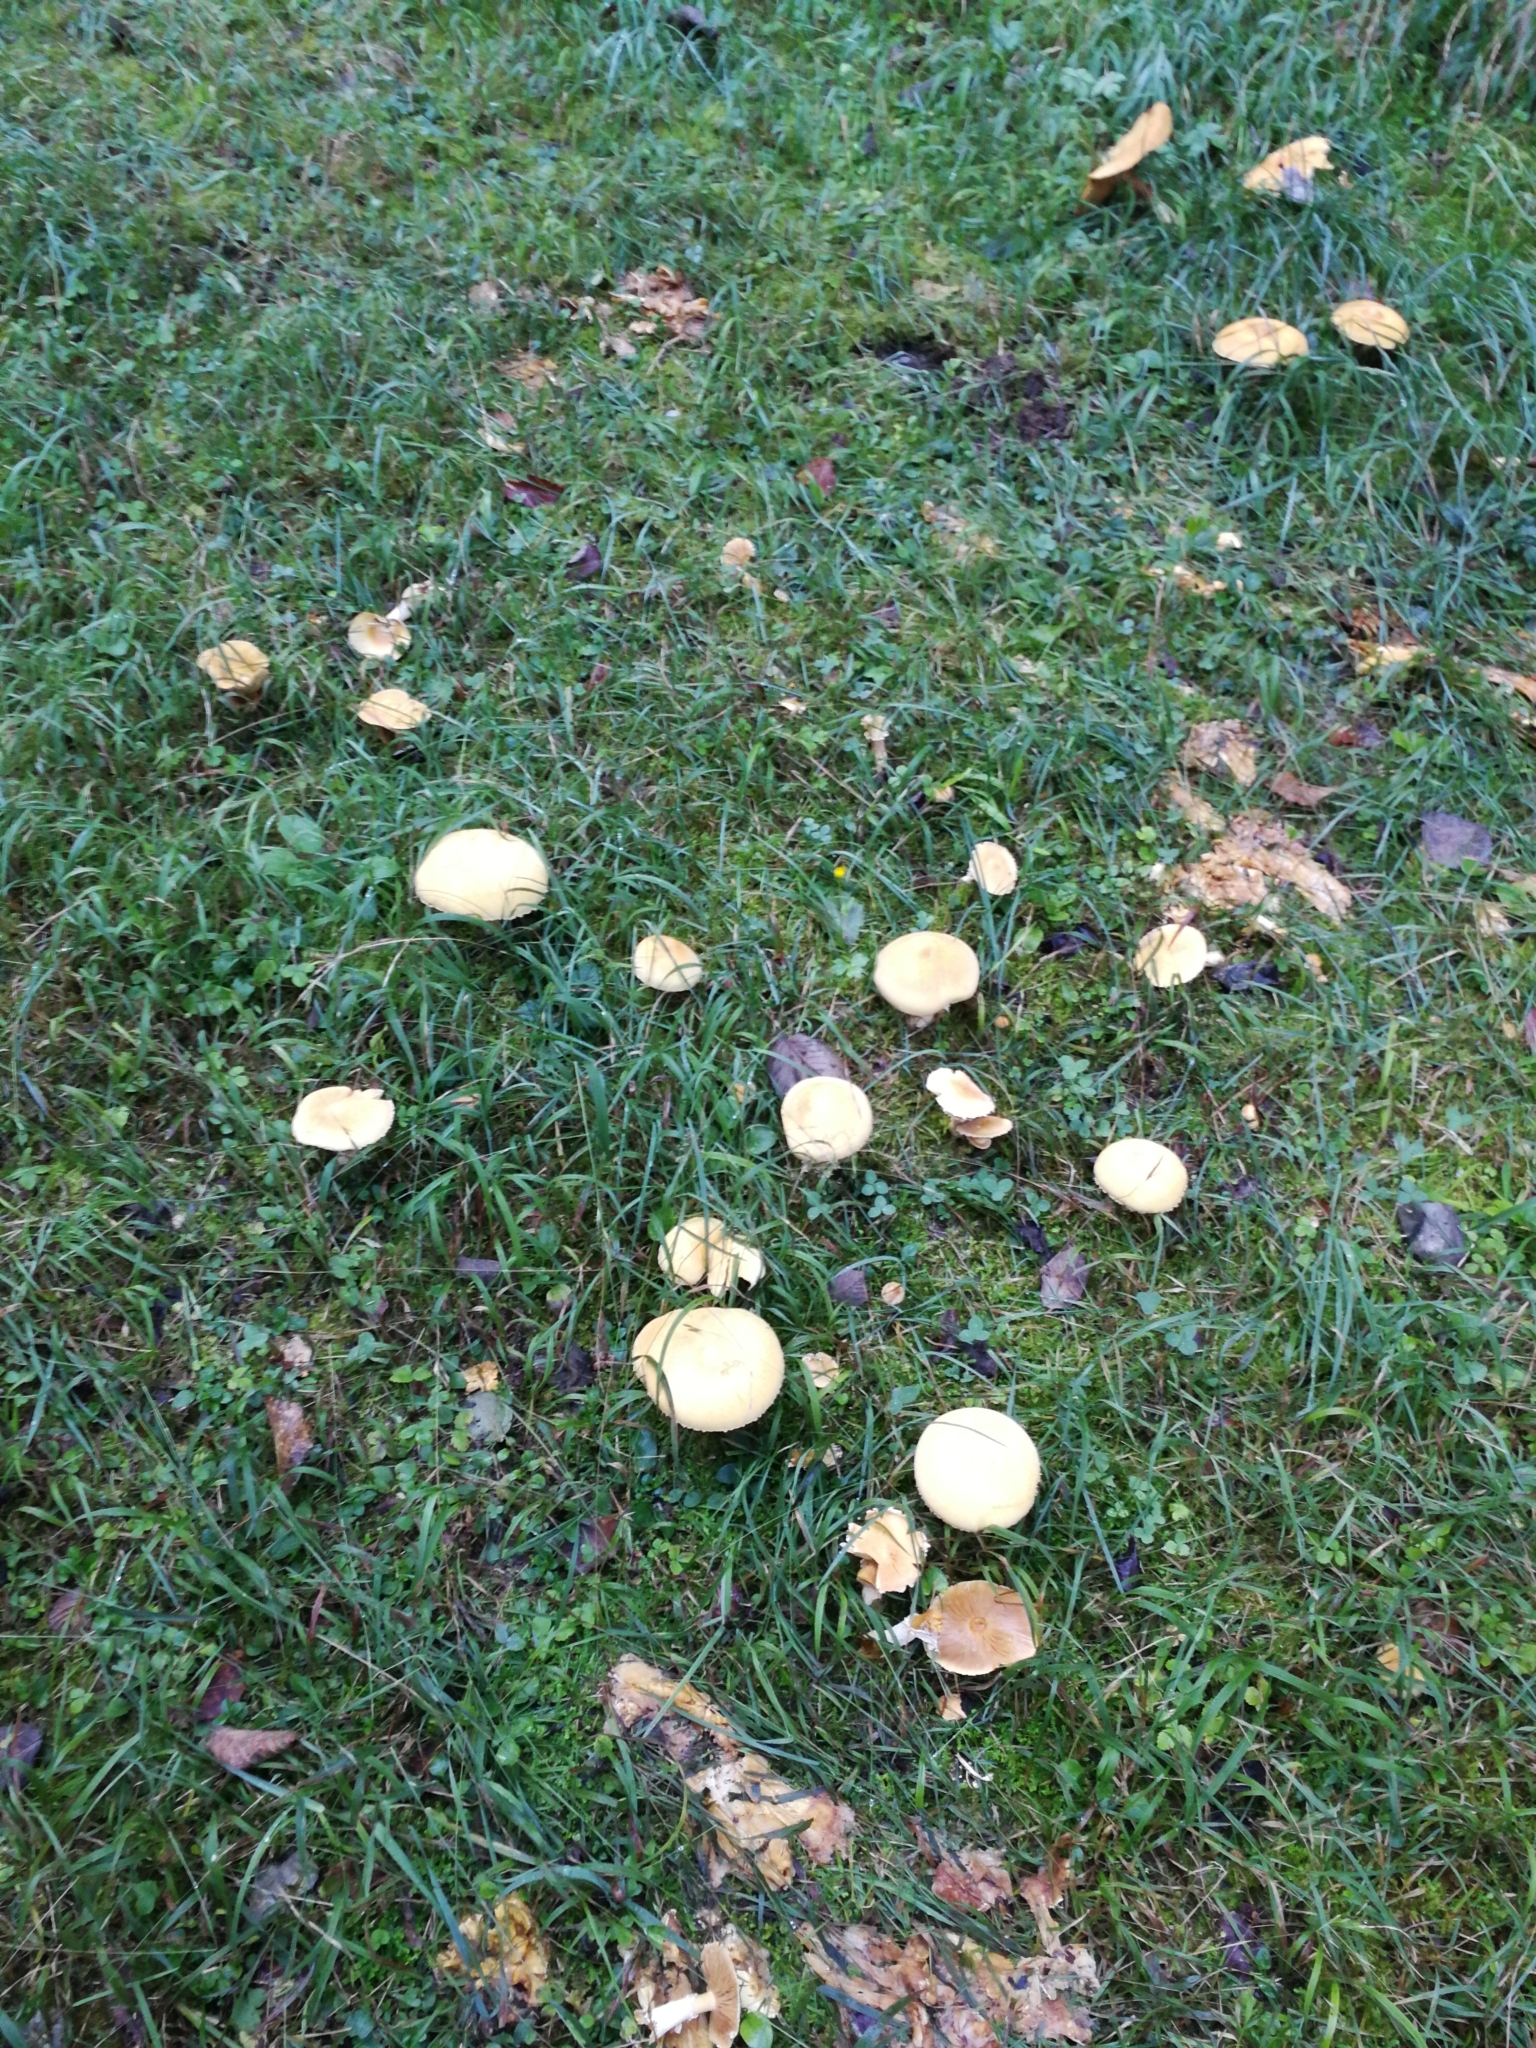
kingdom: Fungi
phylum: Basidiomycota
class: Agaricomycetes
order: Agaricales
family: Tricholomataceae
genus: Phaeolepiota
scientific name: Phaeolepiota aurea
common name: Golden bootleg
